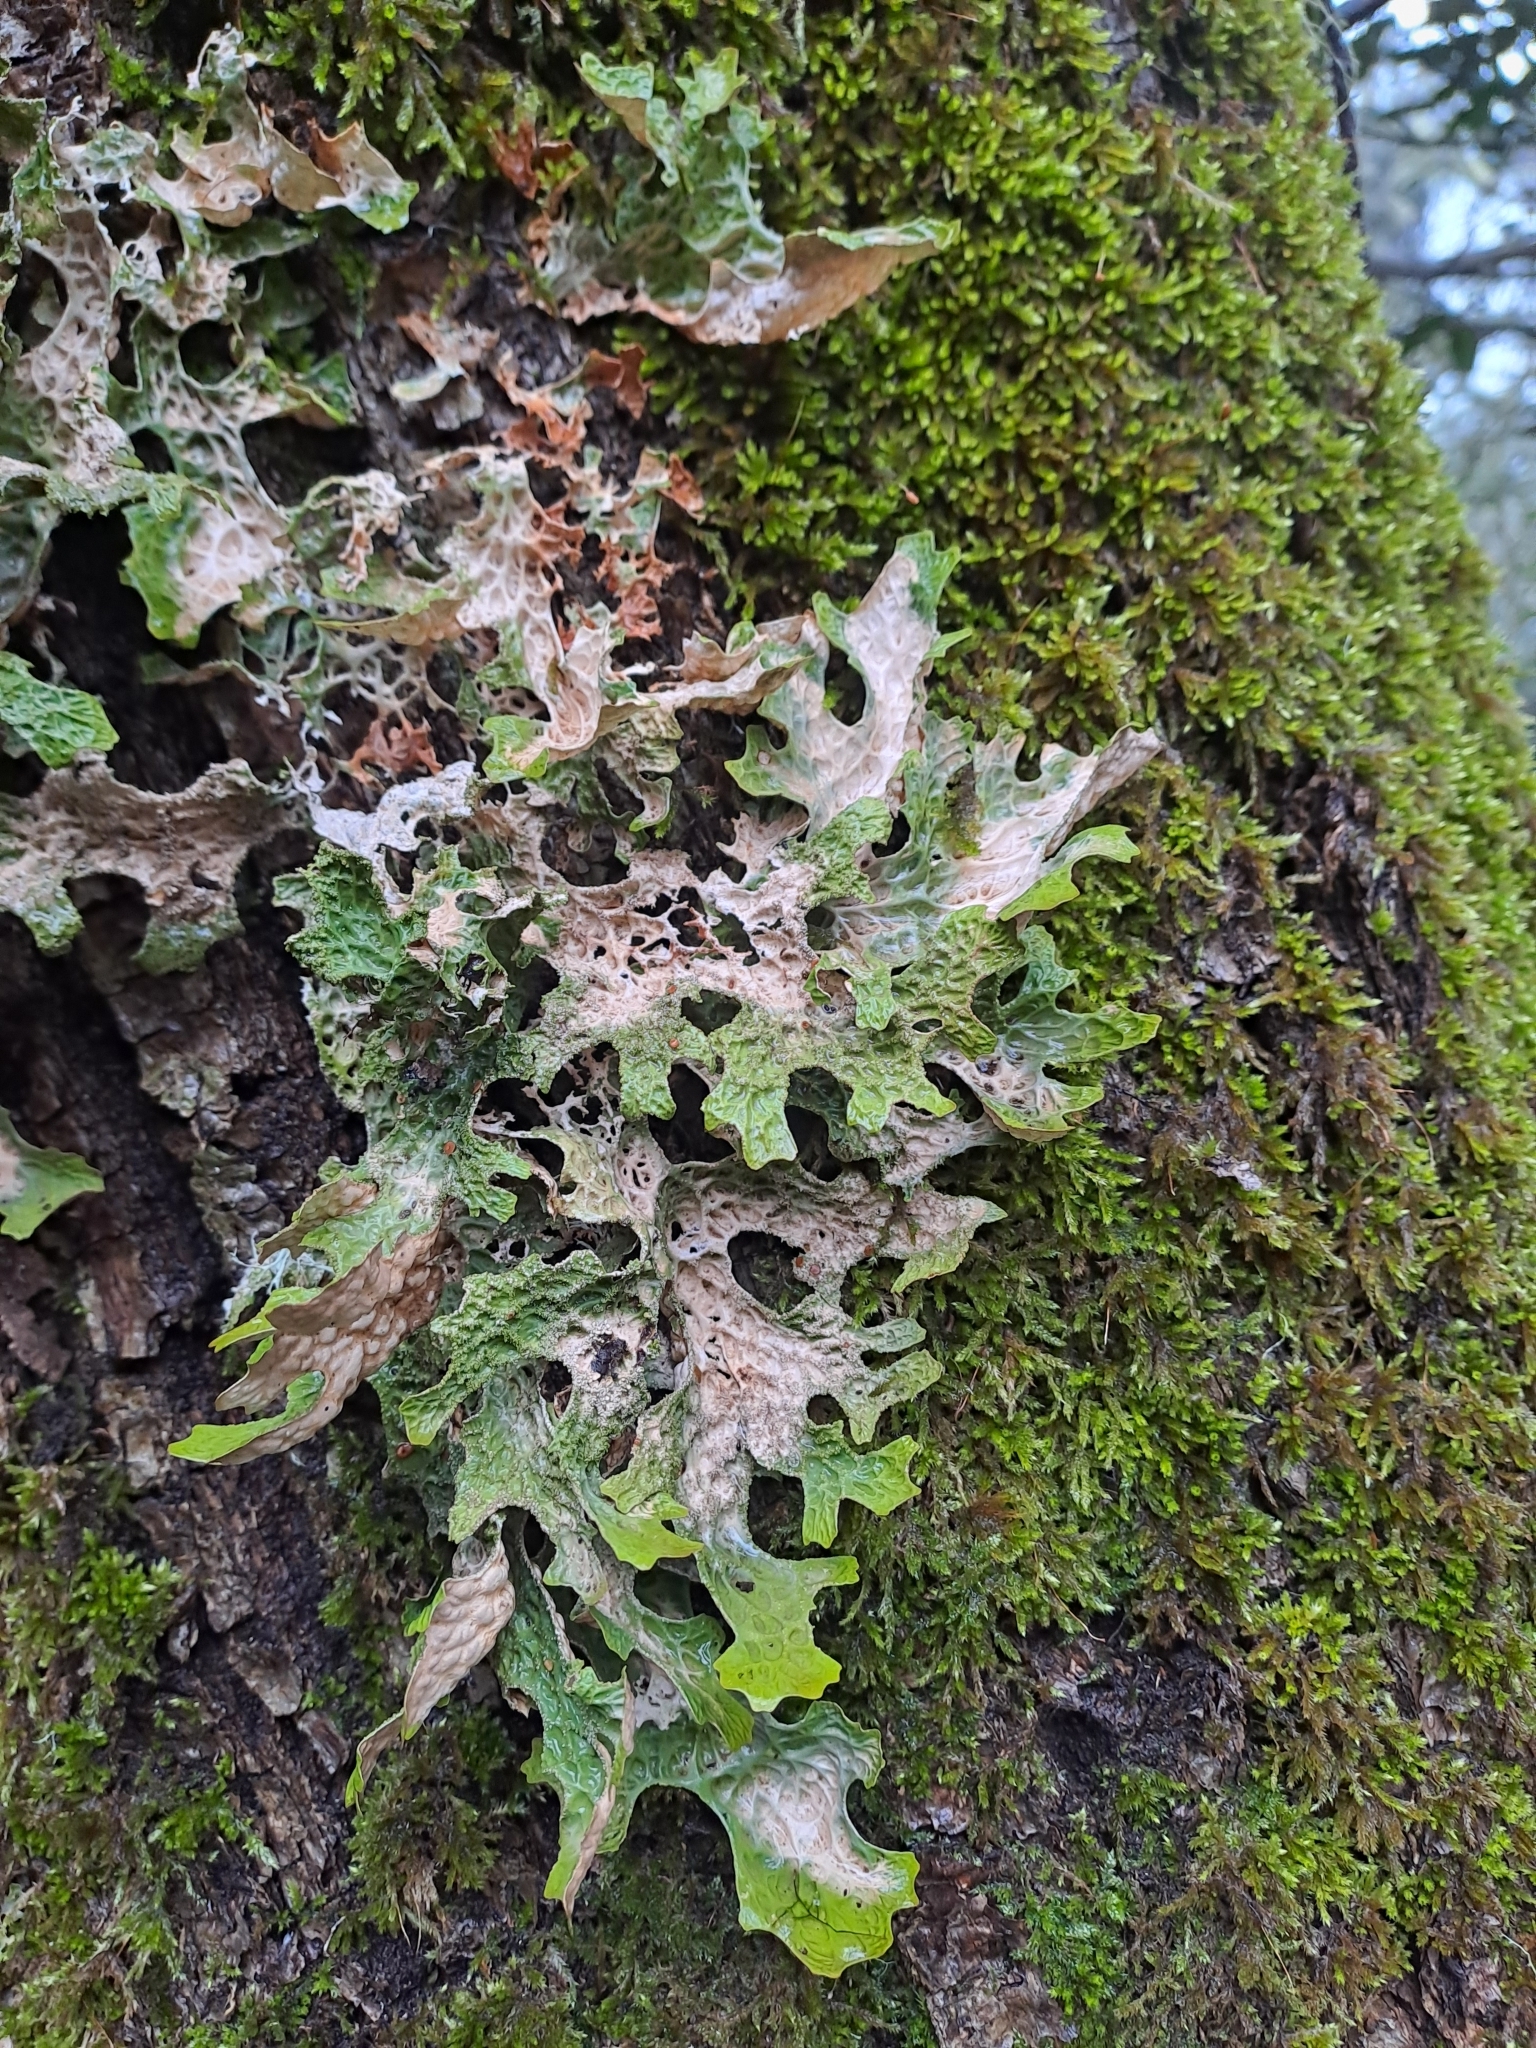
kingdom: Fungi
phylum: Ascomycota
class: Lecanoromycetes
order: Peltigerales
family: Lobariaceae
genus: Lobaria
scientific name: Lobaria pulmonaria
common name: Lungwort
